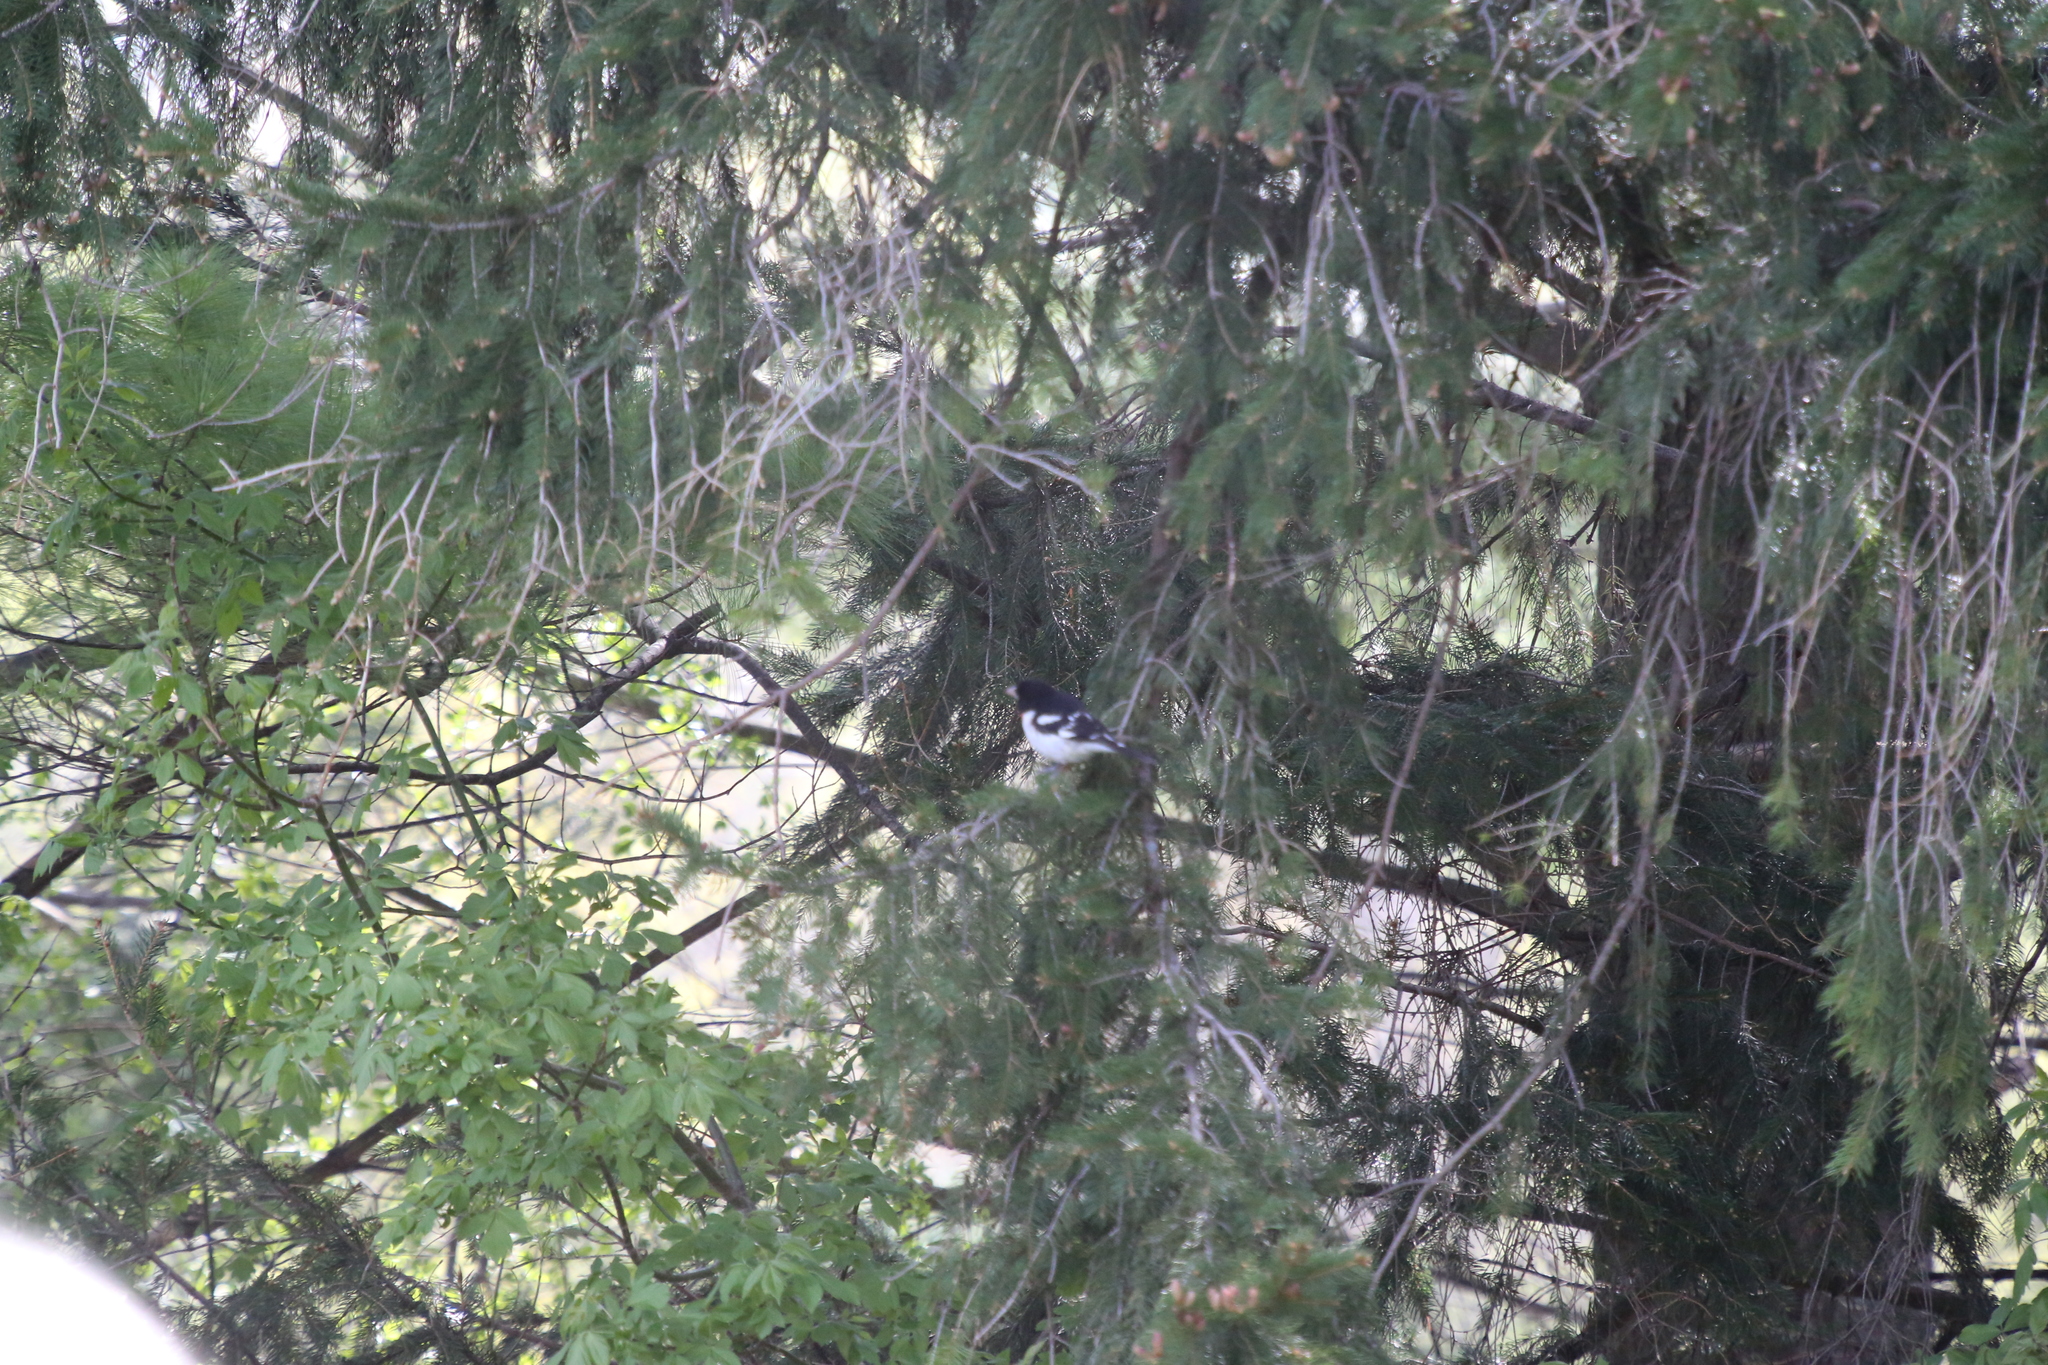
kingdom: Animalia
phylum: Chordata
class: Aves
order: Passeriformes
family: Cardinalidae
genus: Pheucticus
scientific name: Pheucticus ludovicianus
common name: Rose-breasted grosbeak
